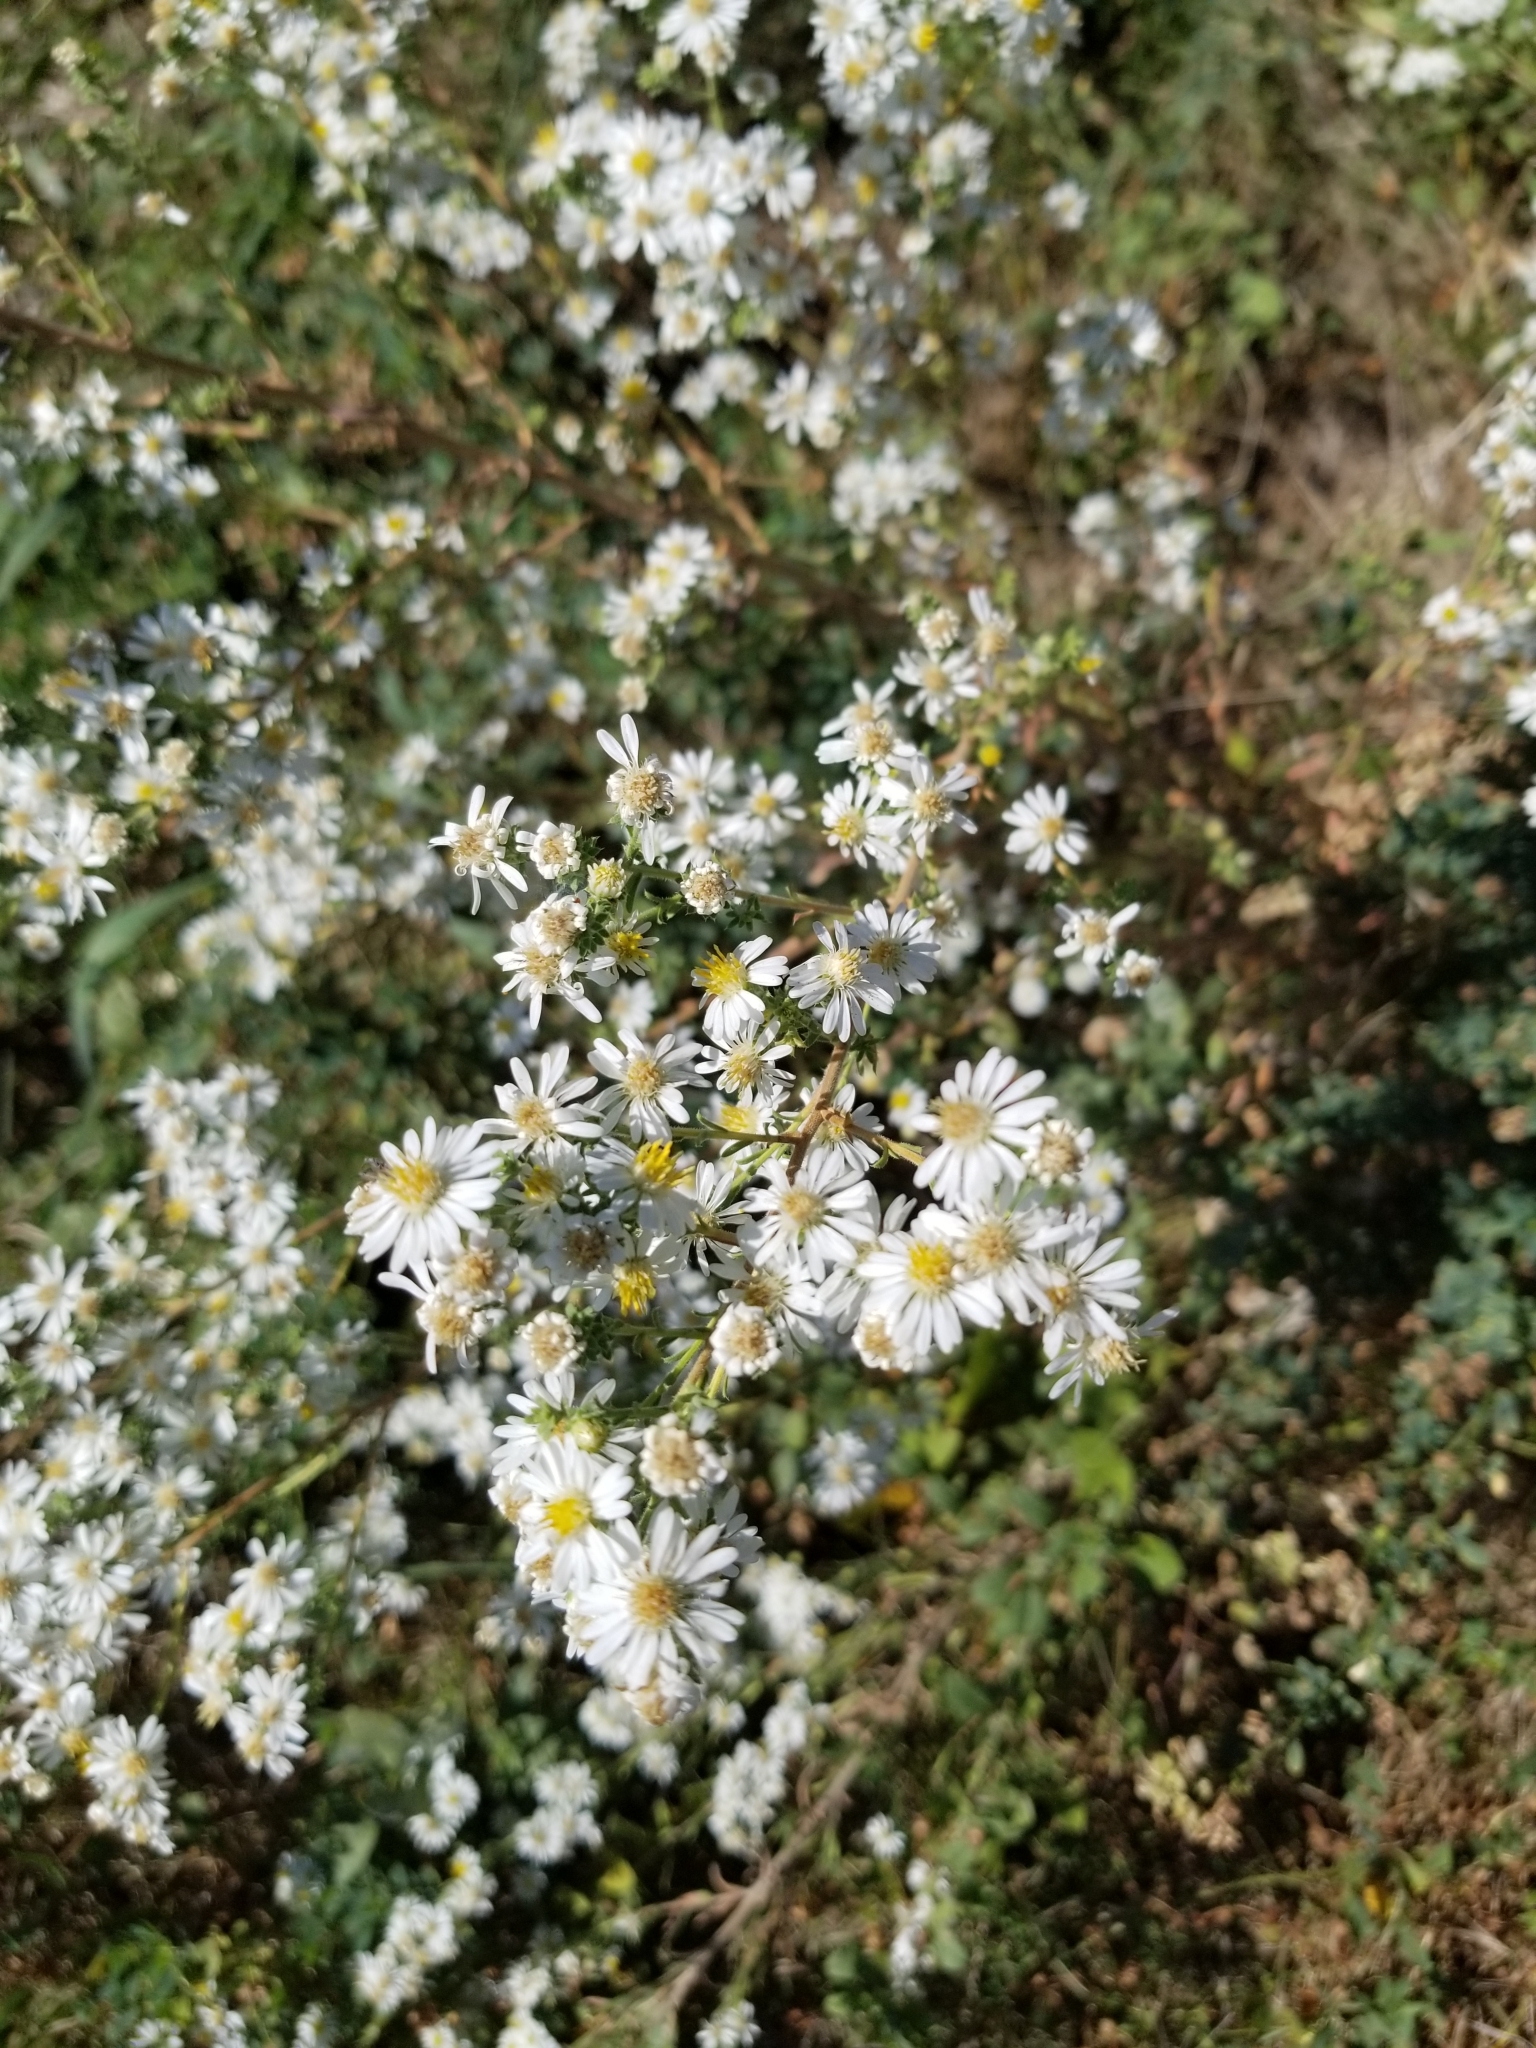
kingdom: Plantae
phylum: Tracheophyta
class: Magnoliopsida
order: Asterales
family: Asteraceae
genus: Symphyotrichum
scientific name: Symphyotrichum ericoides
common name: Heath aster
